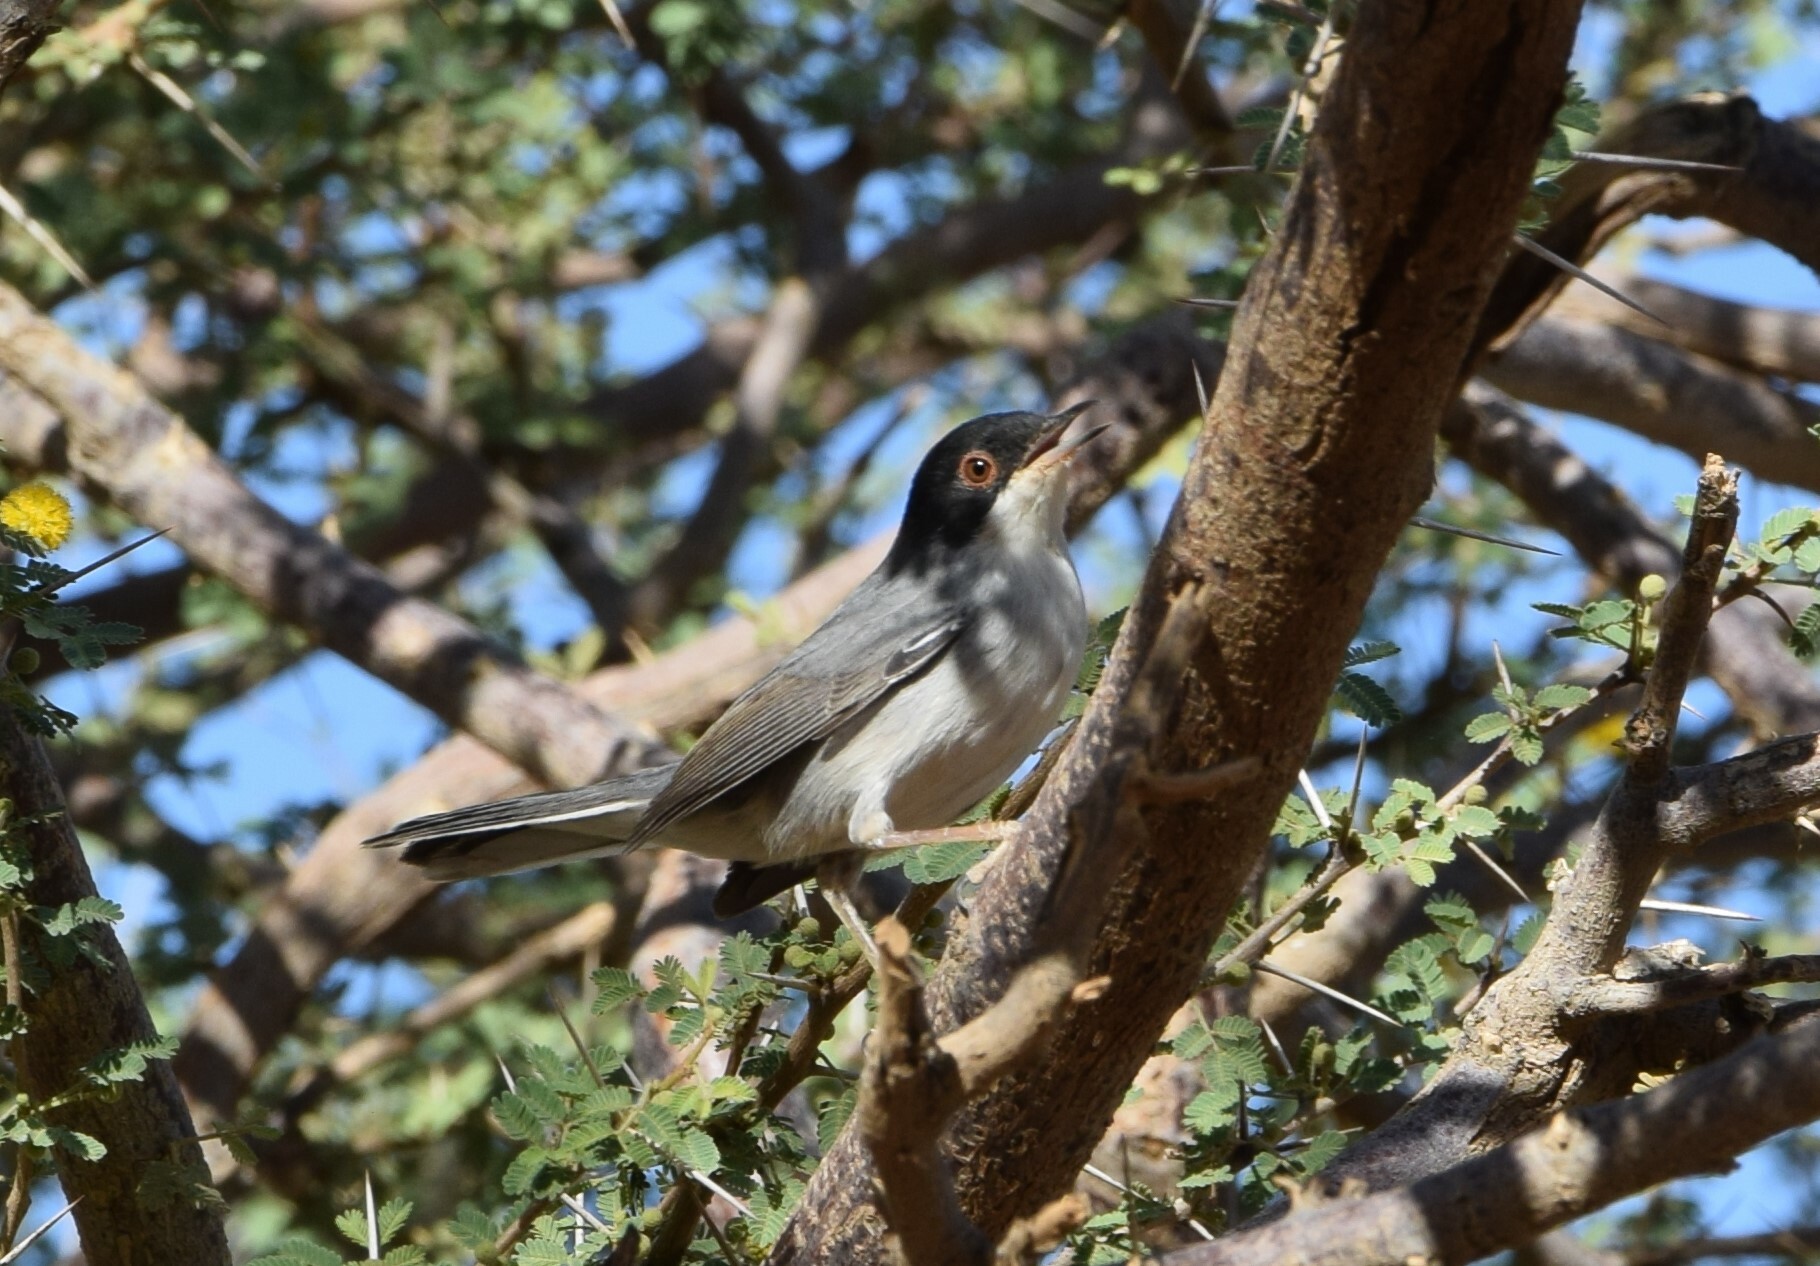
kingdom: Animalia
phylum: Chordata
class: Aves
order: Passeriformes
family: Sylviidae
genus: Curruca
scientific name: Curruca melanocephala
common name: Sardinian warbler
